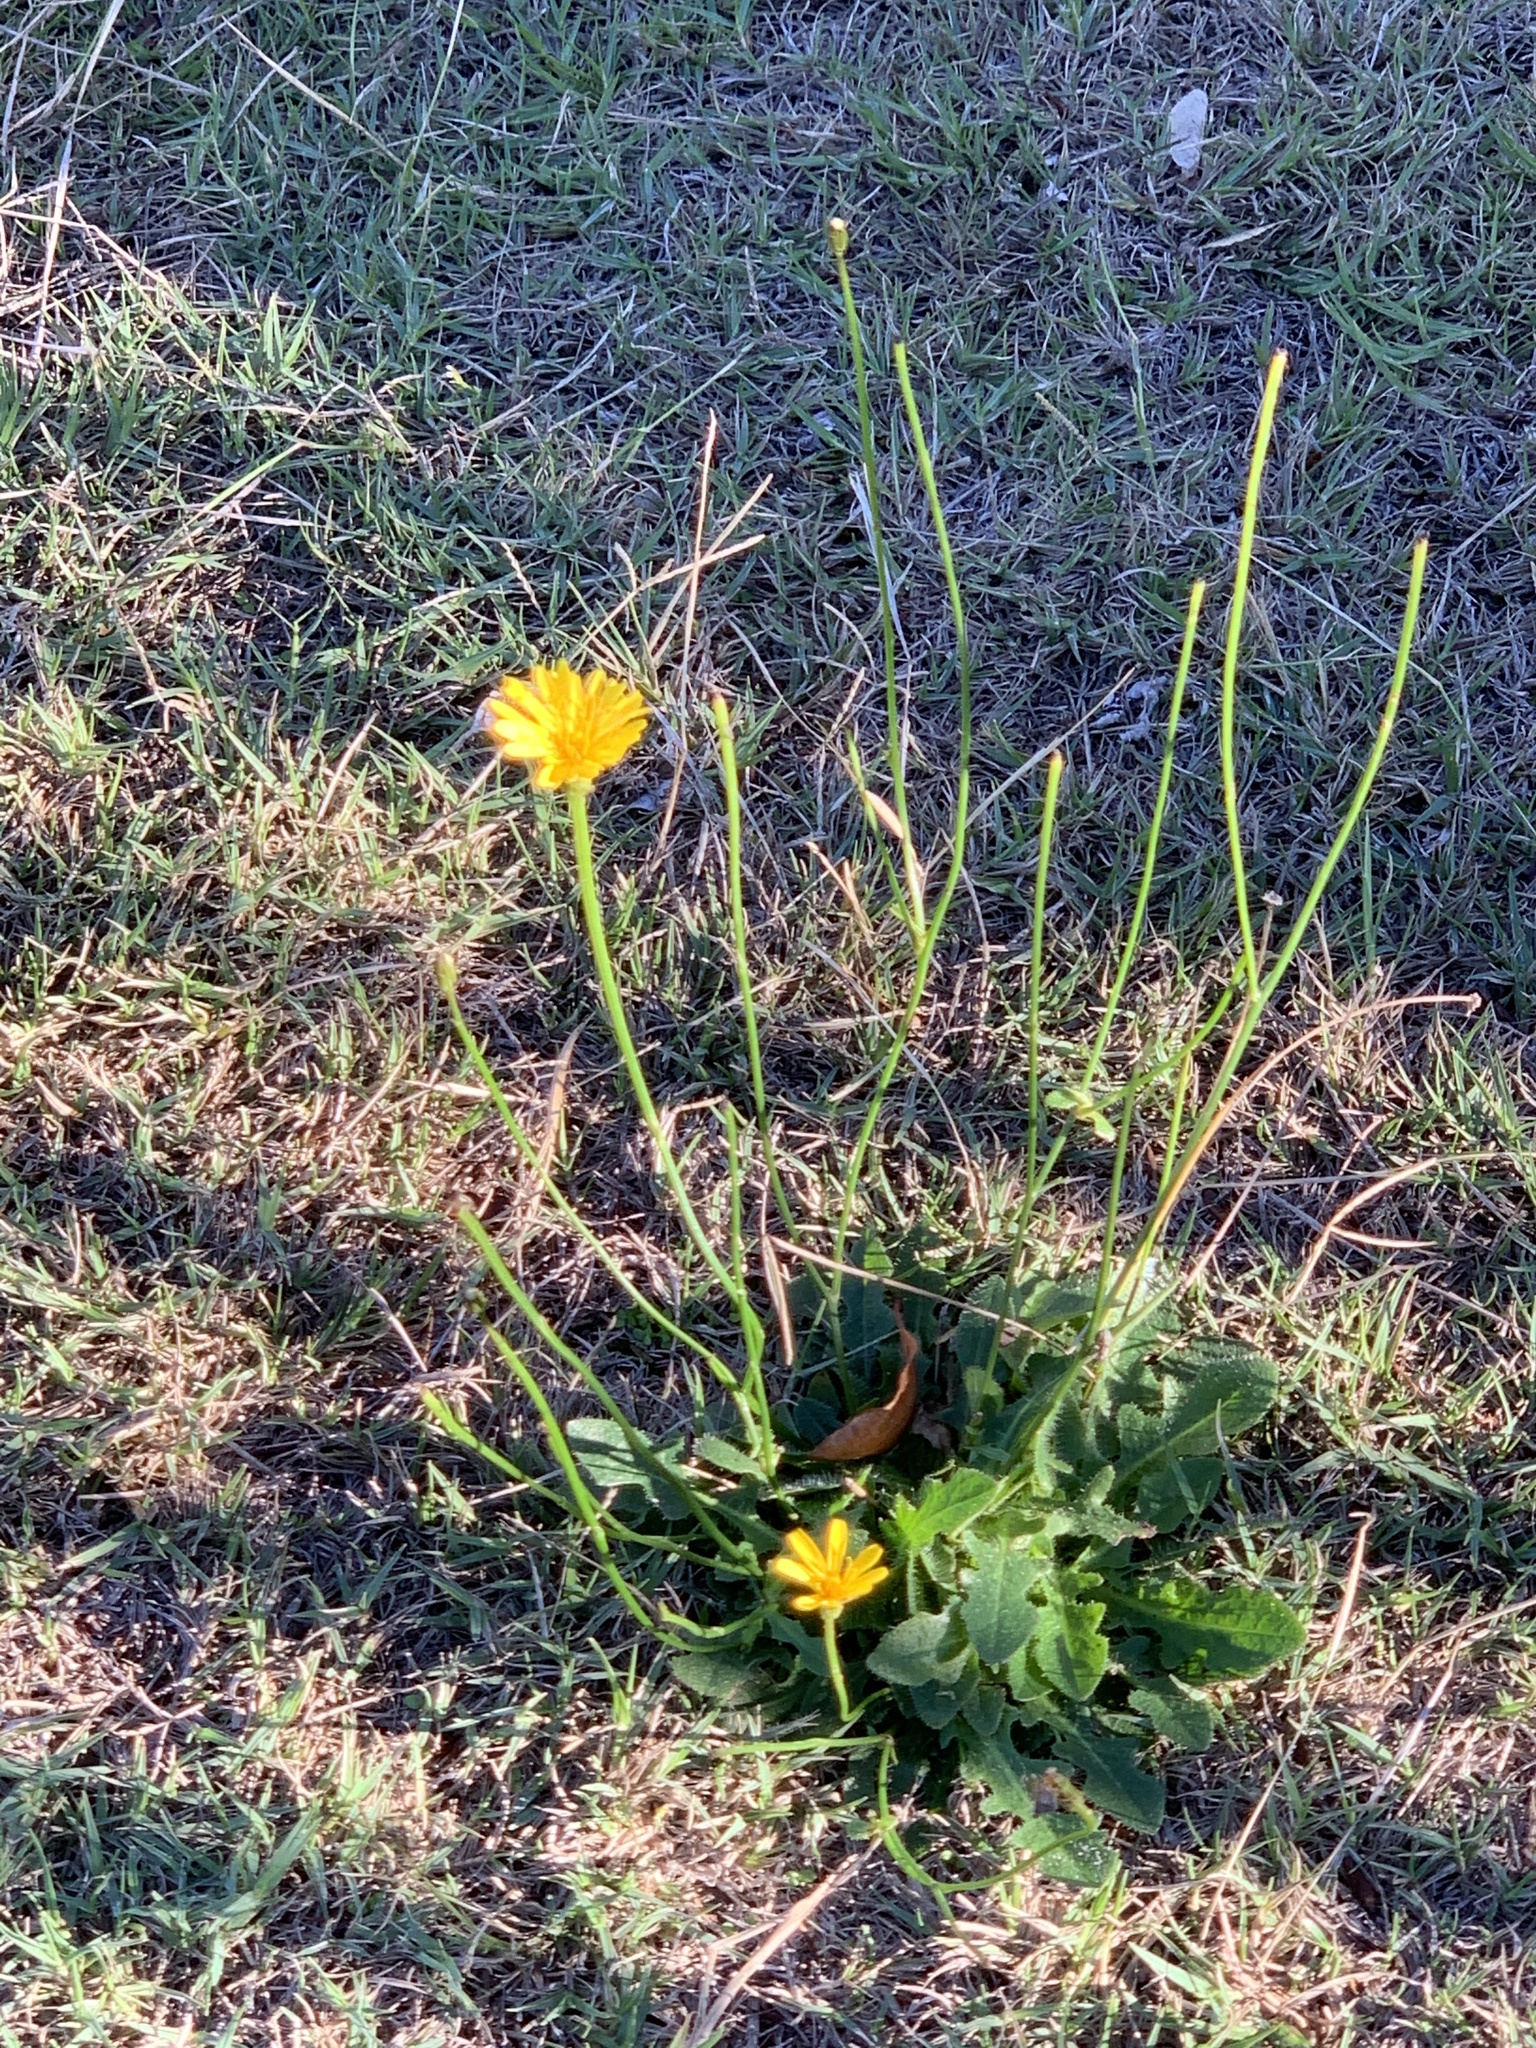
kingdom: Plantae
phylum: Tracheophyta
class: Magnoliopsida
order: Asterales
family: Asteraceae
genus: Hypochaeris
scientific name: Hypochaeris radicata
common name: Flatweed
